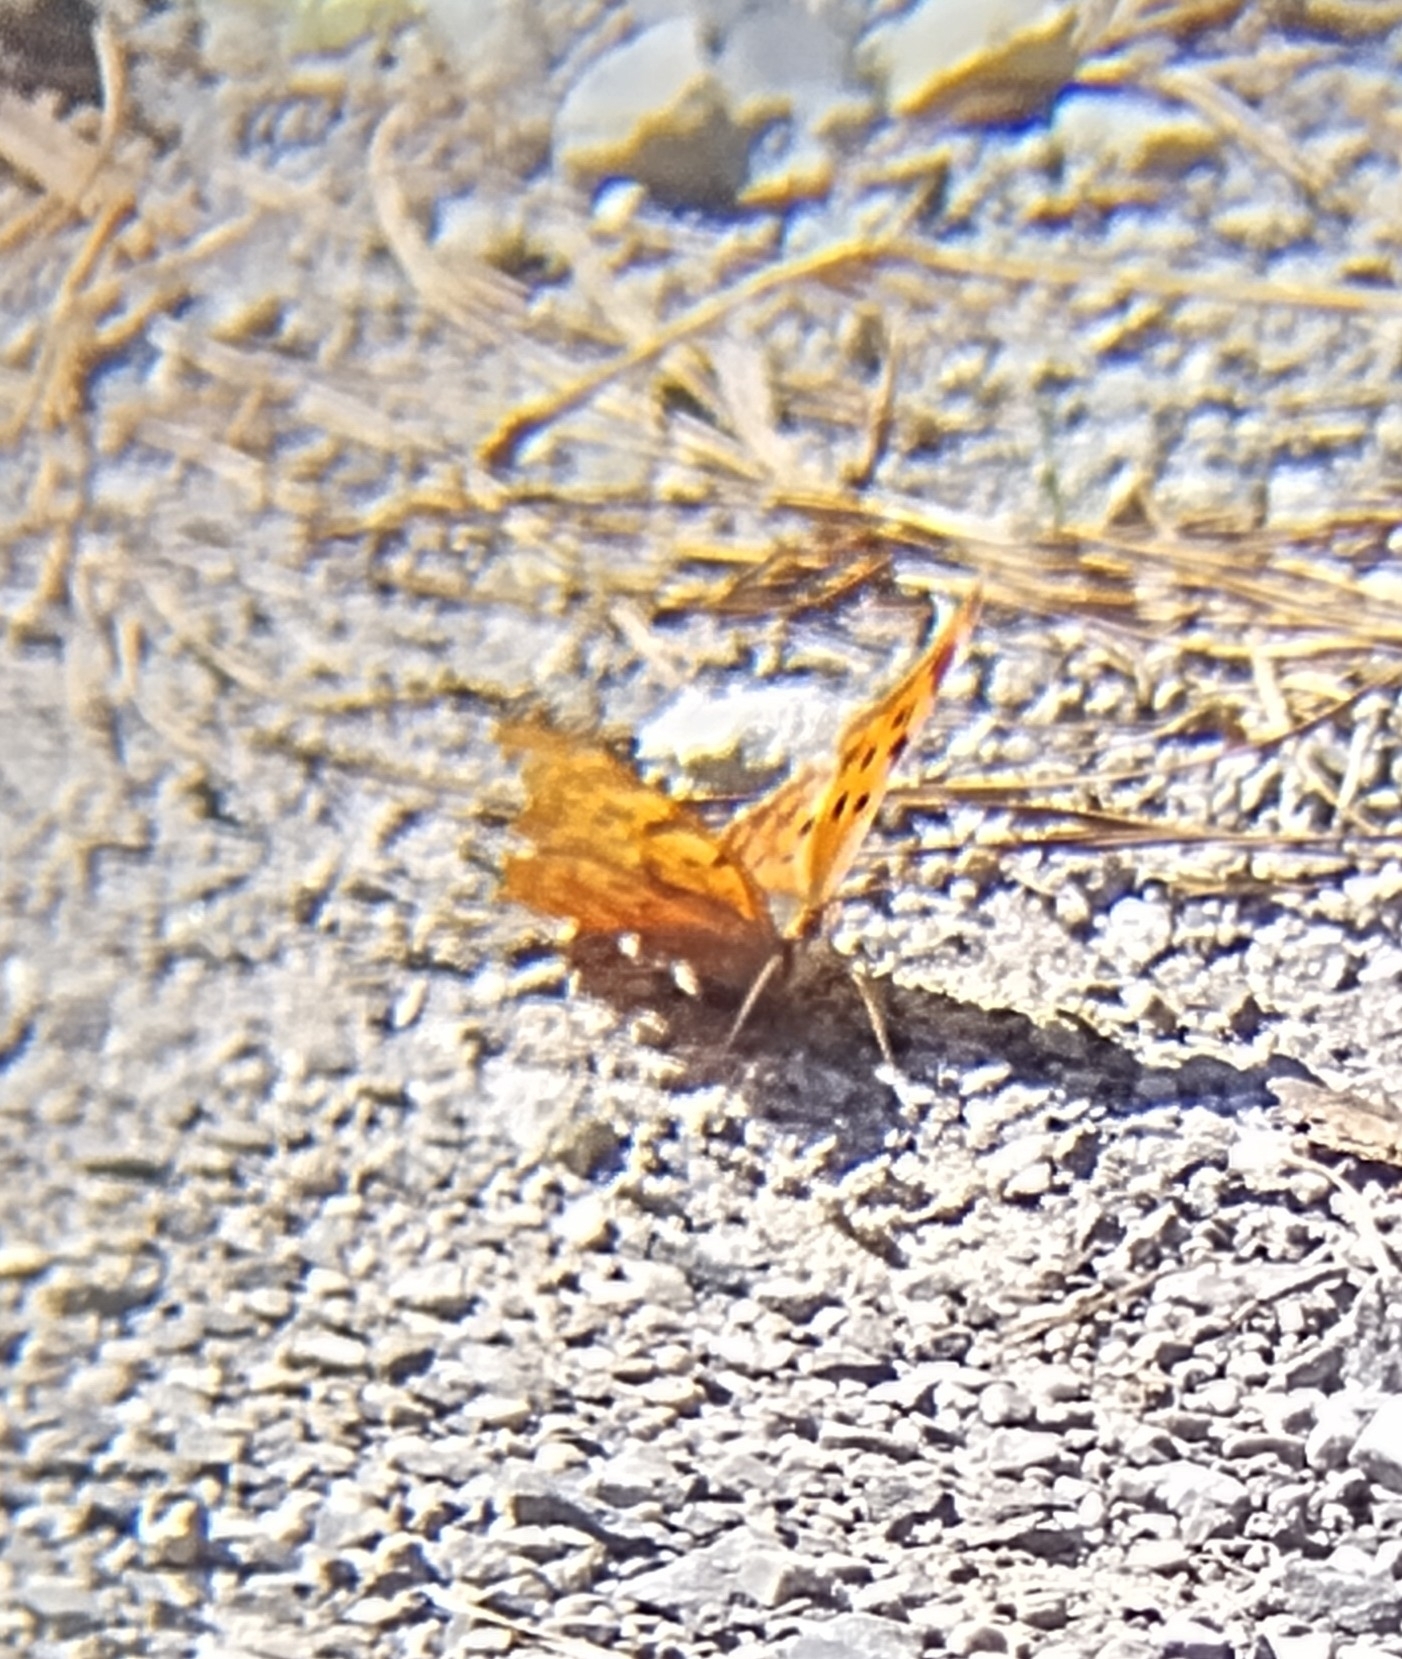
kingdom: Animalia
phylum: Arthropoda
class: Insecta
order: Lepidoptera
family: Nymphalidae
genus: Polygonia
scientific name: Polygonia interrogationis
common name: Question mark
